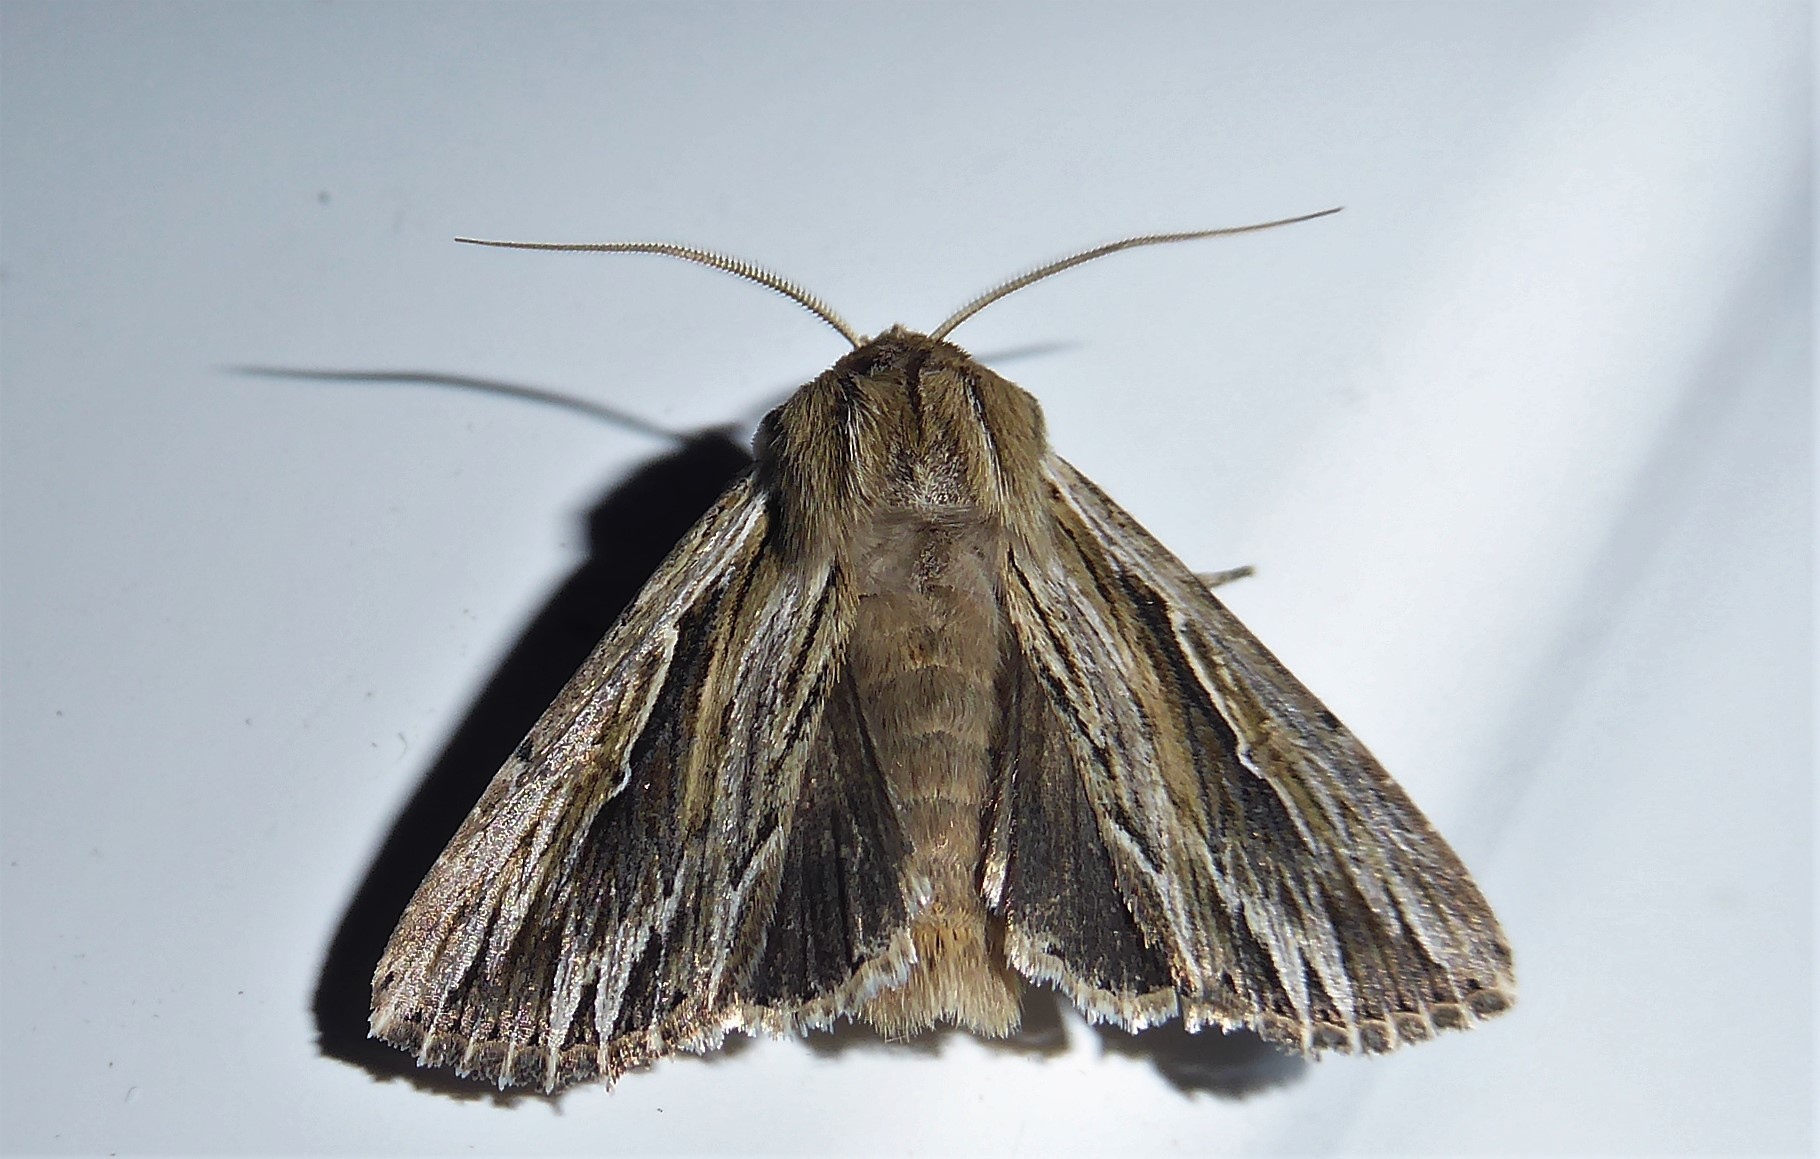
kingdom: Animalia
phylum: Arthropoda
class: Insecta
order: Lepidoptera
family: Noctuidae
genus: Persectania
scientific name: Persectania aversa
